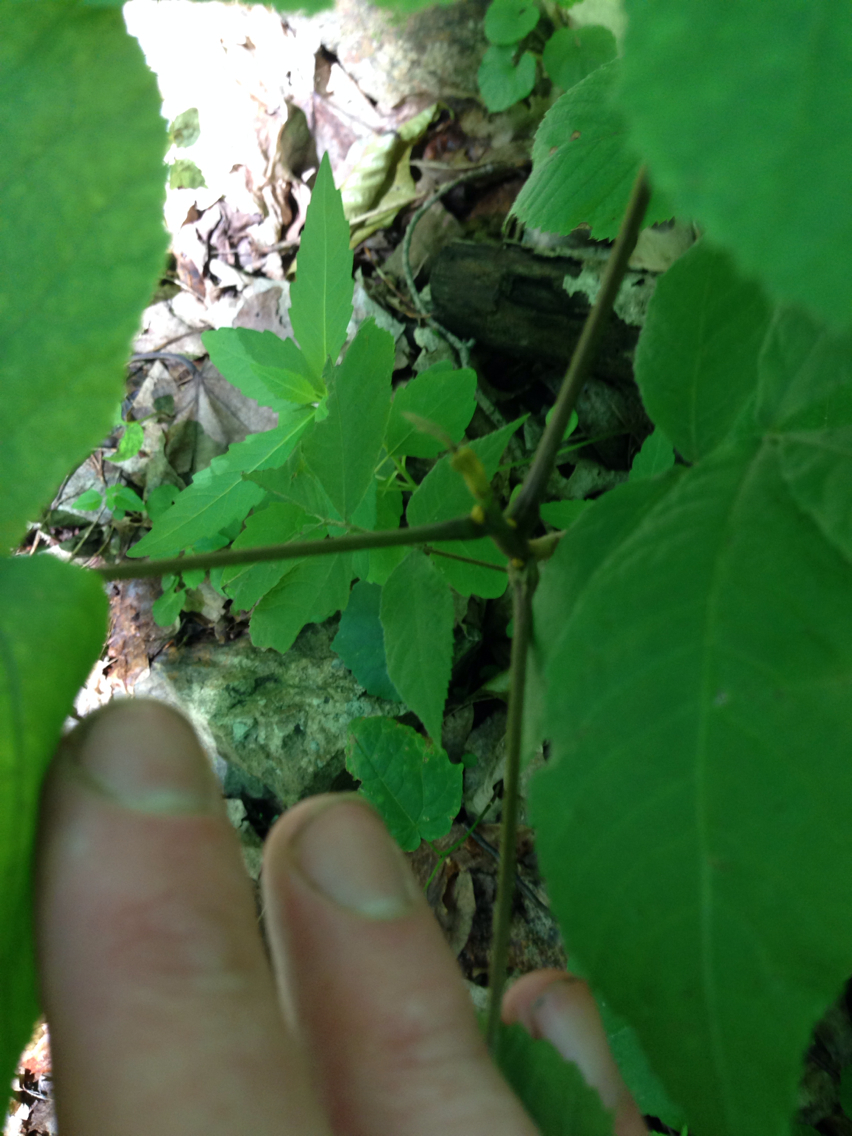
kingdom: Plantae
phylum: Tracheophyta
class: Magnoliopsida
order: Fagales
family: Juglandaceae
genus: Carya
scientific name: Carya cordiformis
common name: Bitternut hickory
